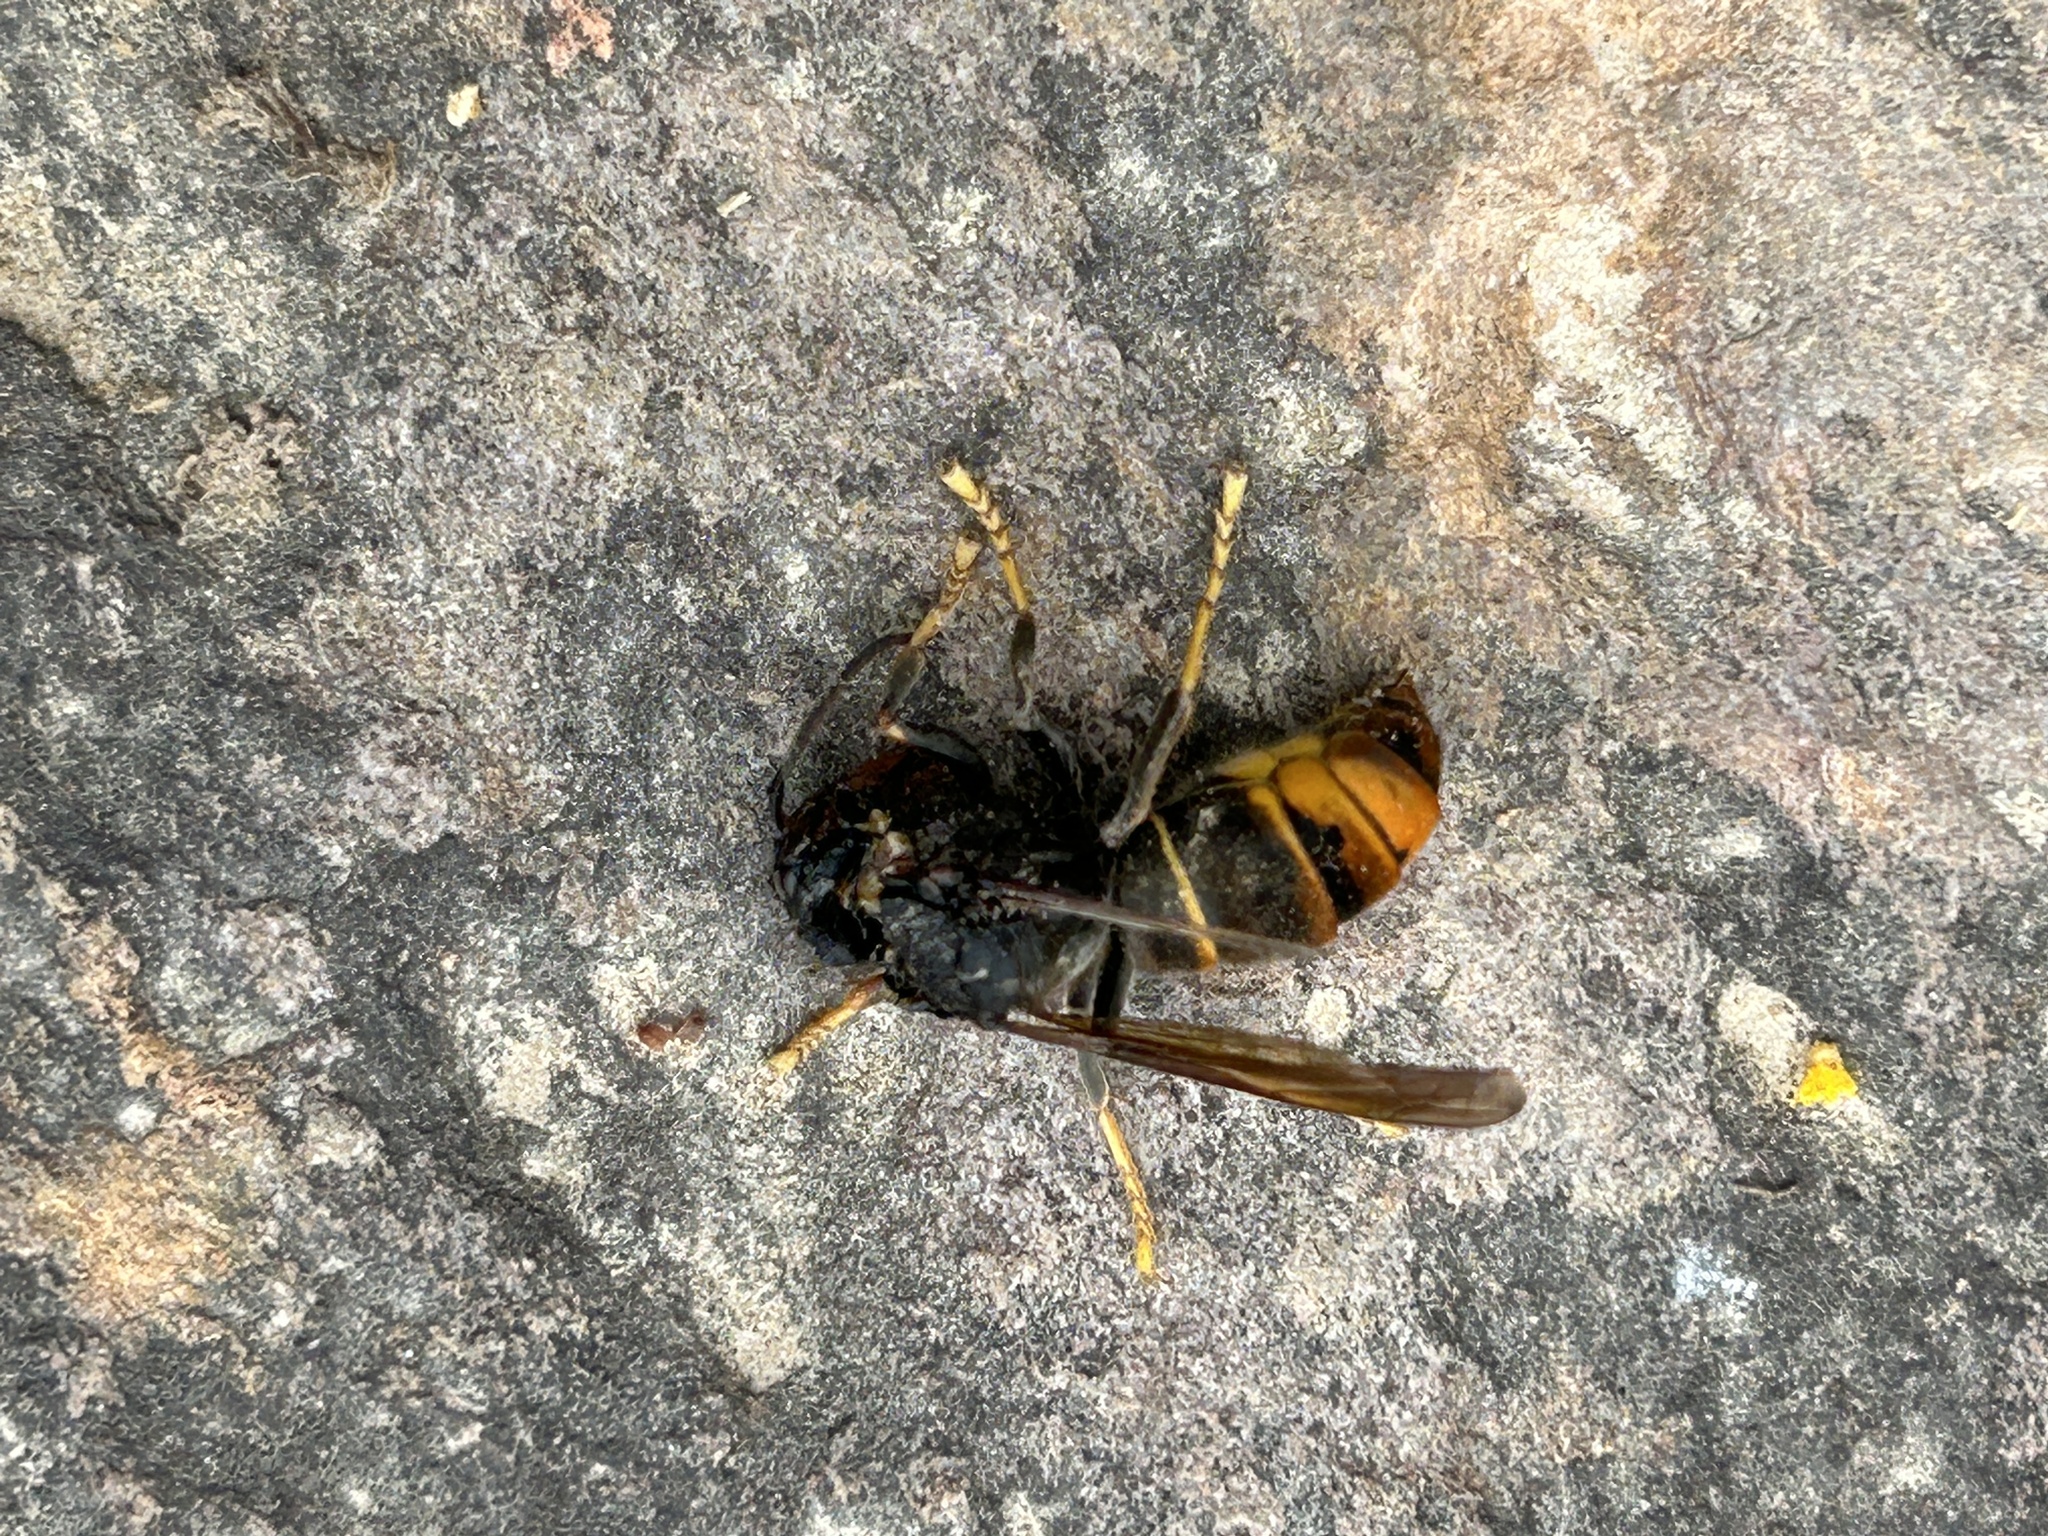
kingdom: Animalia
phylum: Arthropoda
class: Insecta
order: Hymenoptera
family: Vespidae
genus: Vespa
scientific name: Vespa velutina
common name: Asian hornet
